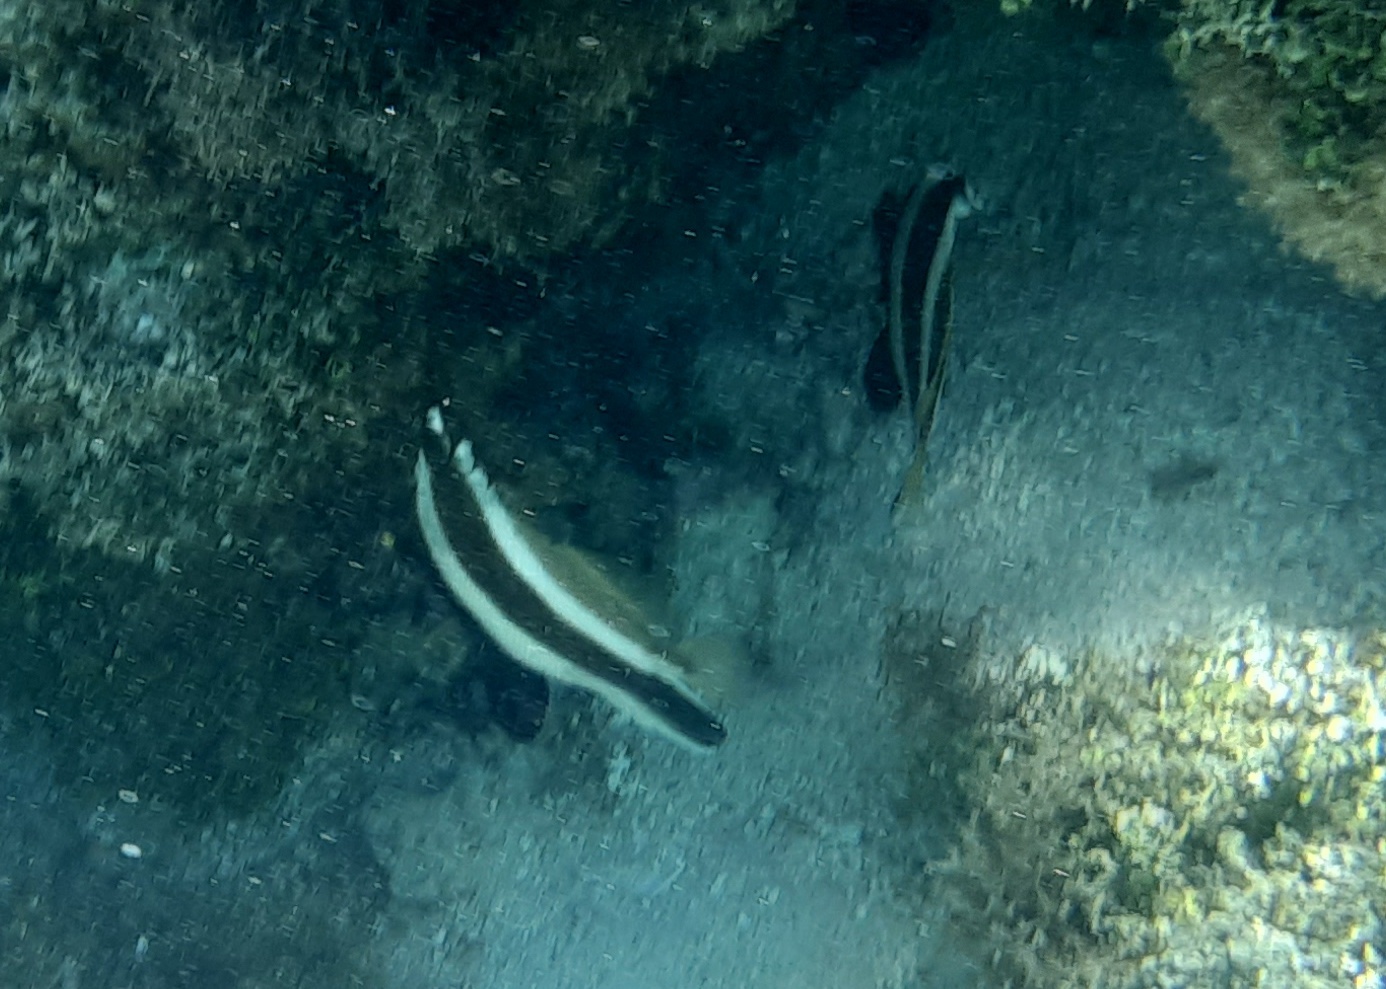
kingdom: Animalia
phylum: Chordata
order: Perciformes
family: Chaetodontidae
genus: Heniochus
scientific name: Heniochus chrysostomus
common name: Horned bannerfish
